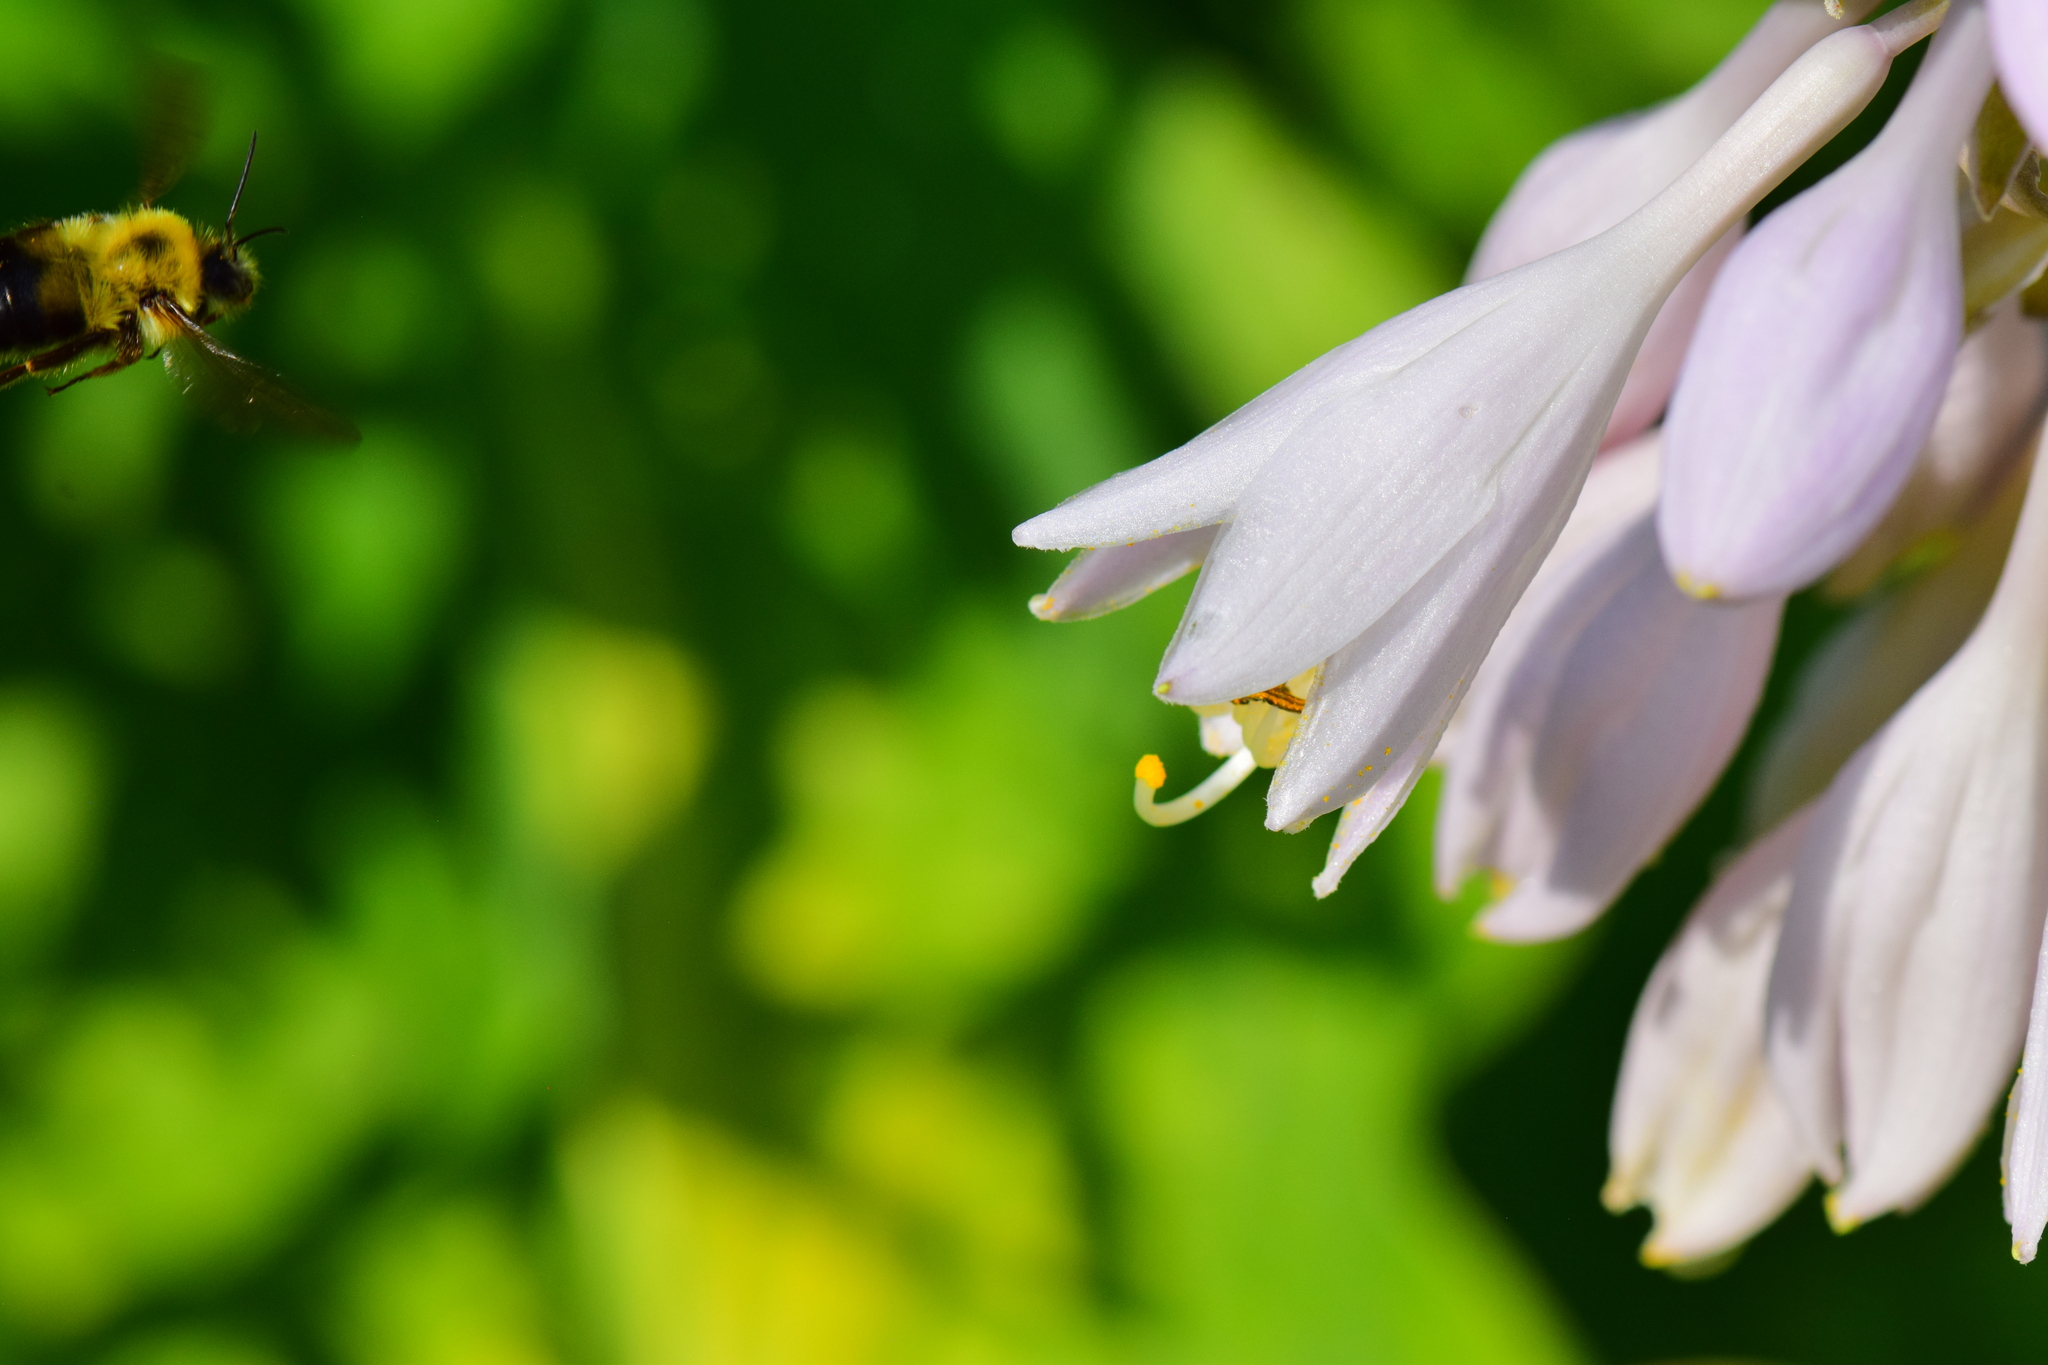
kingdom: Animalia
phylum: Arthropoda
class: Insecta
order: Hymenoptera
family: Apidae
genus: Bombus
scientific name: Bombus bimaculatus
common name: Two-spotted bumble bee
